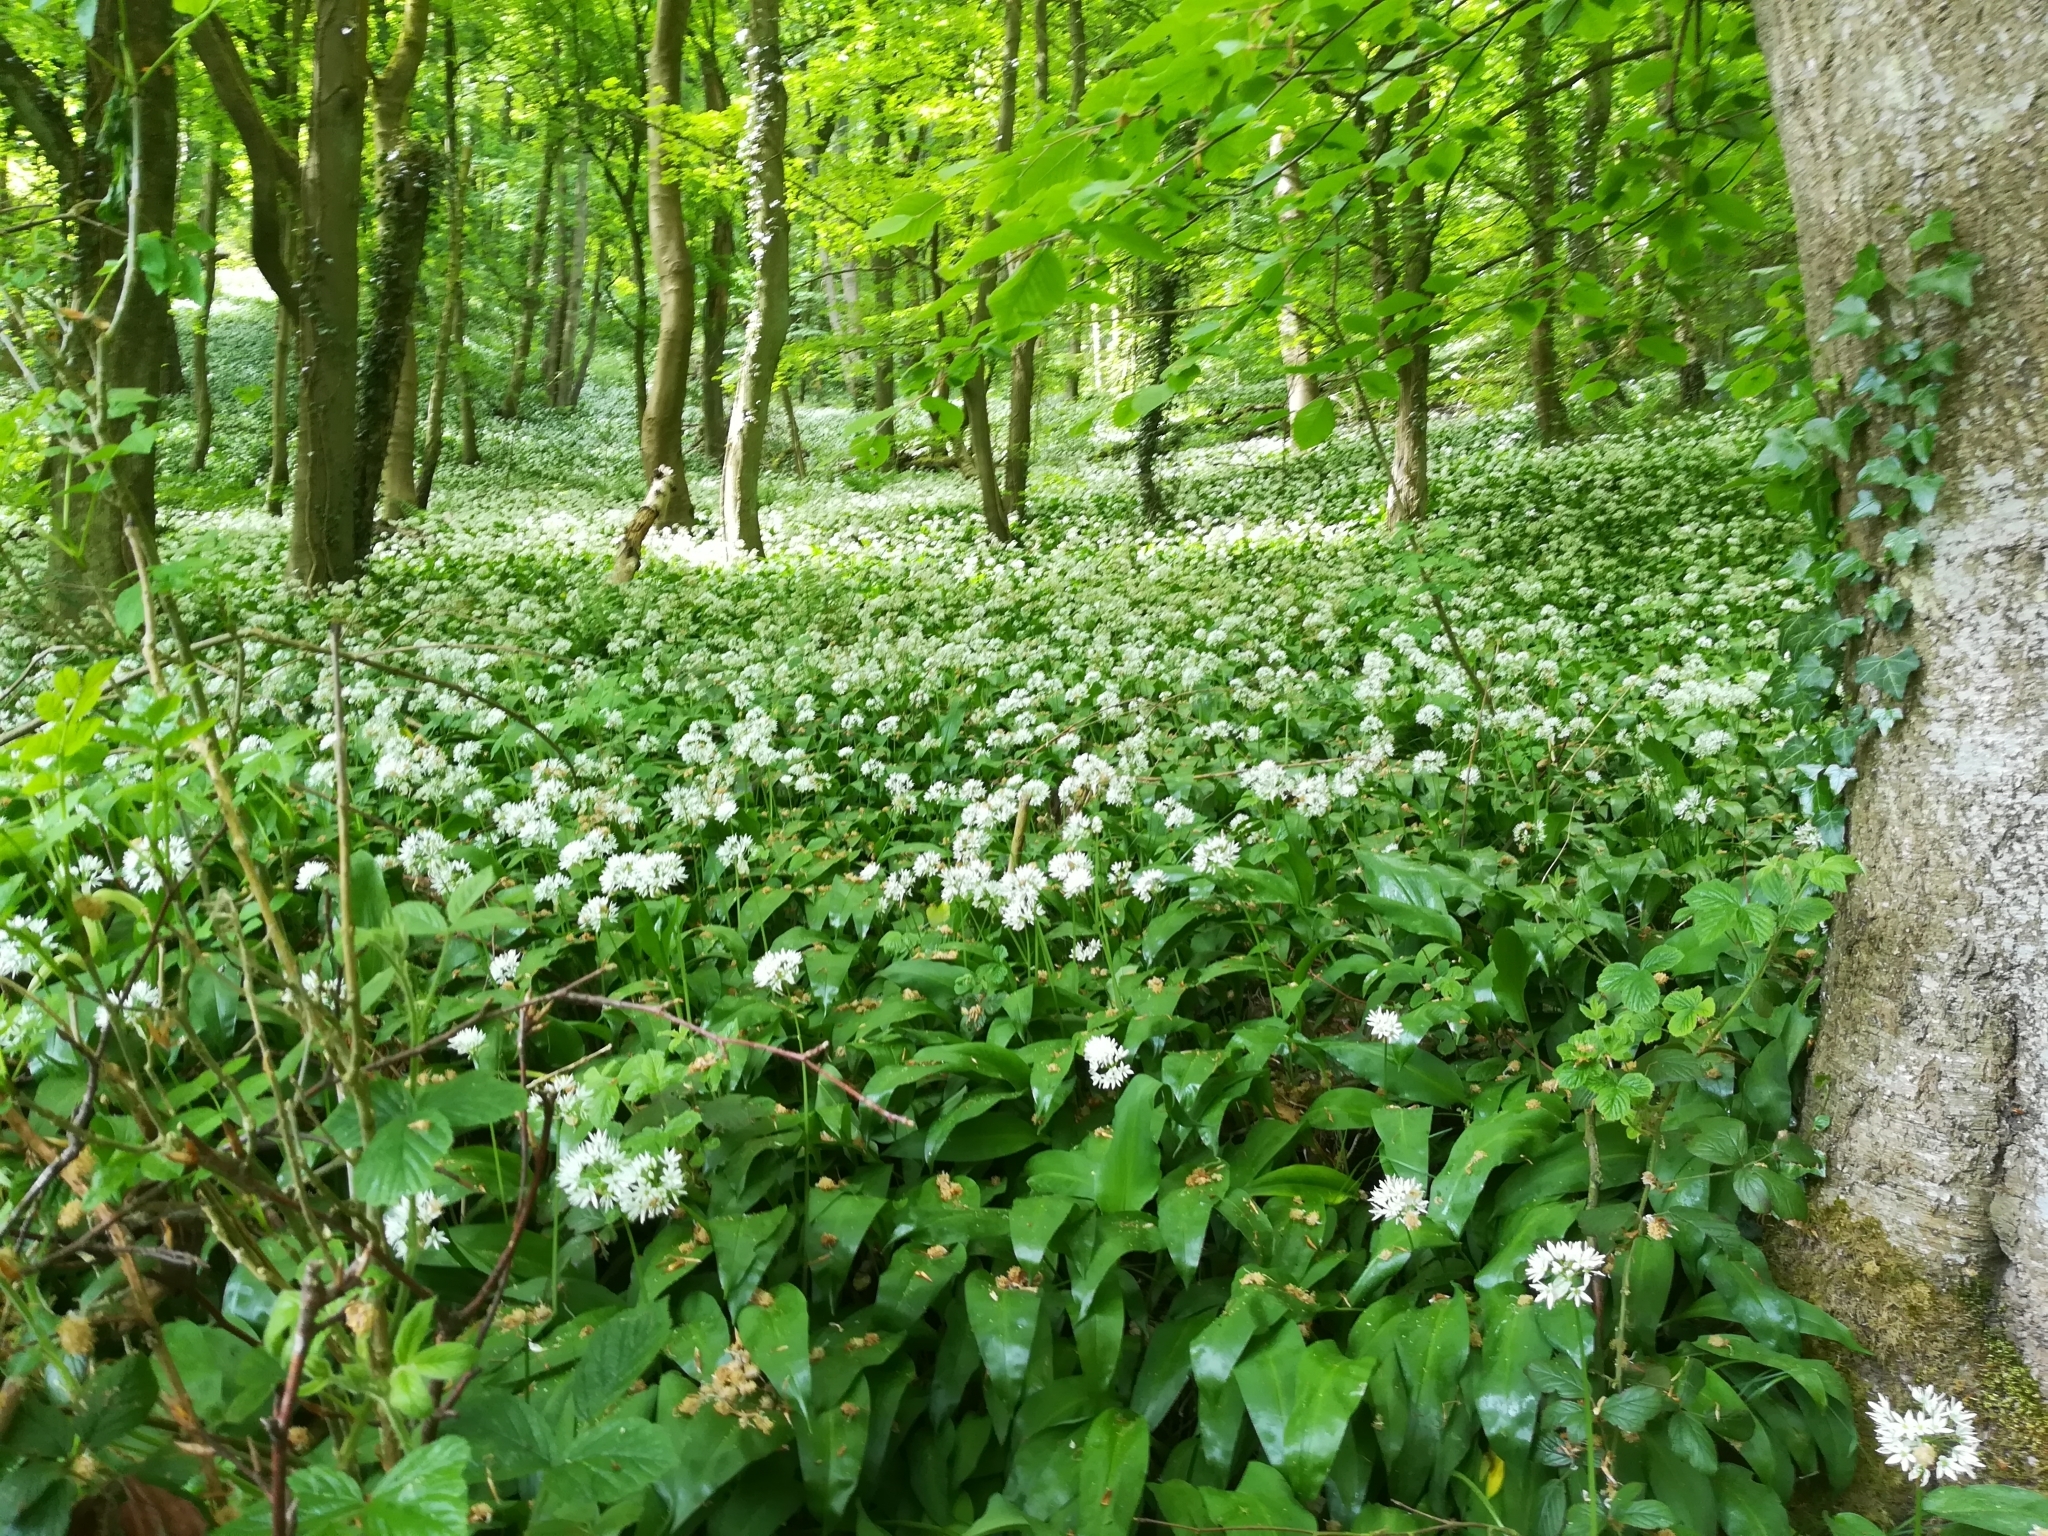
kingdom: Plantae
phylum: Tracheophyta
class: Liliopsida
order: Asparagales
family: Amaryllidaceae
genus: Allium
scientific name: Allium ursinum
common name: Ramsons
